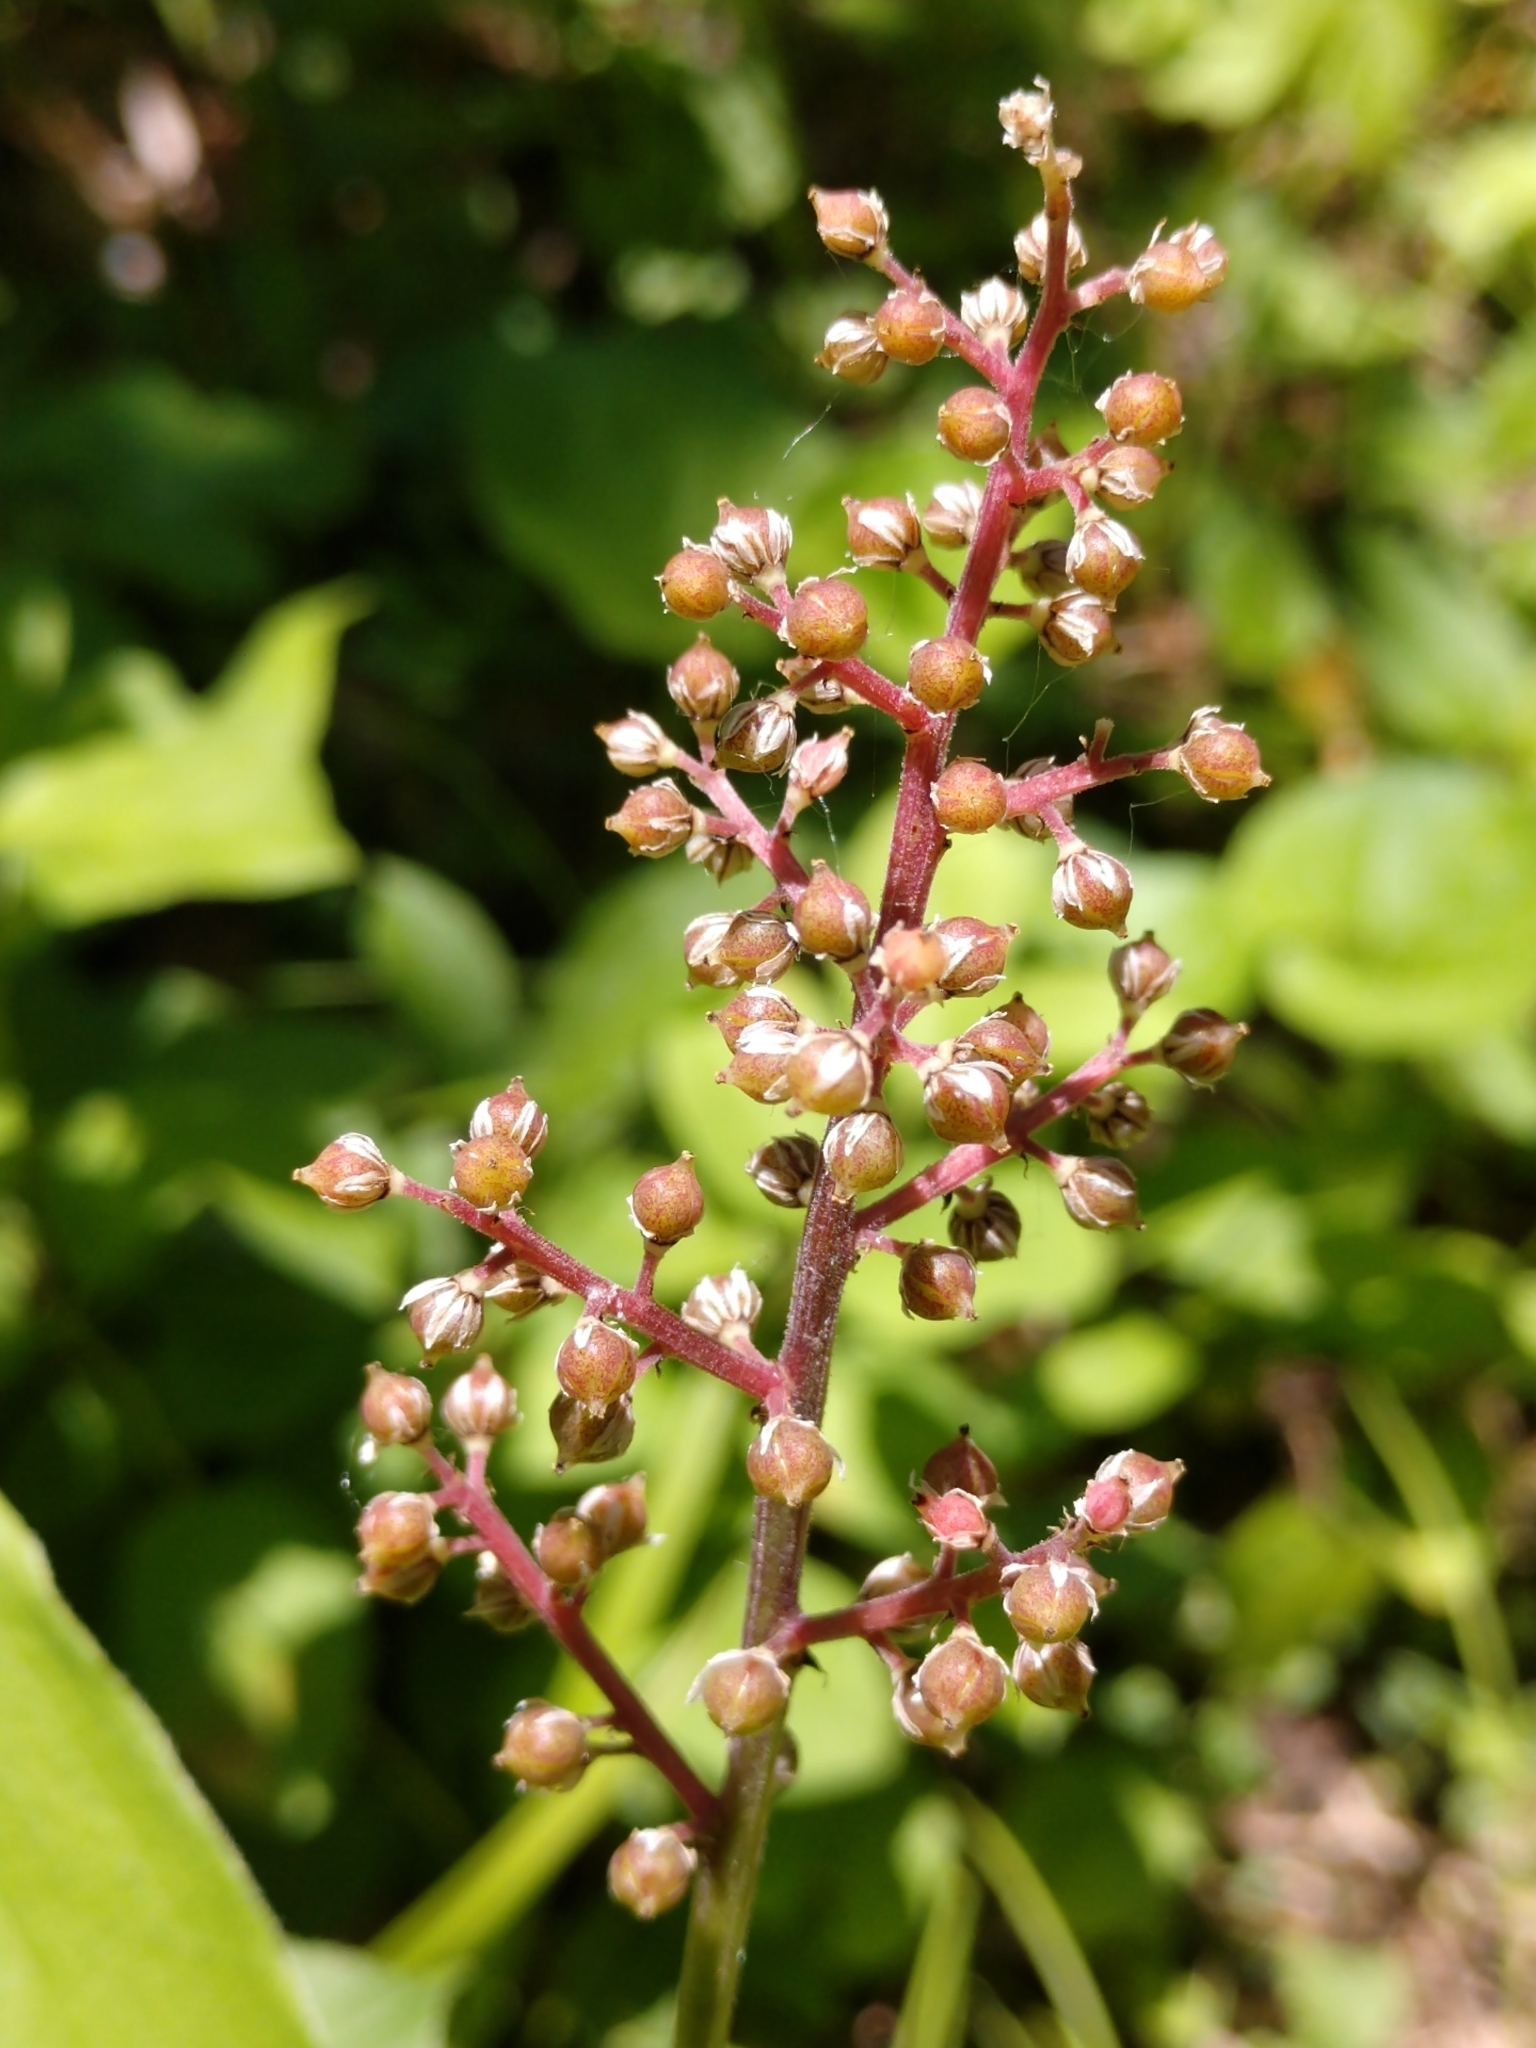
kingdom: Plantae
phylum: Tracheophyta
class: Liliopsida
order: Asparagales
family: Asparagaceae
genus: Maianthemum
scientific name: Maianthemum racemosum
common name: False spikenard
